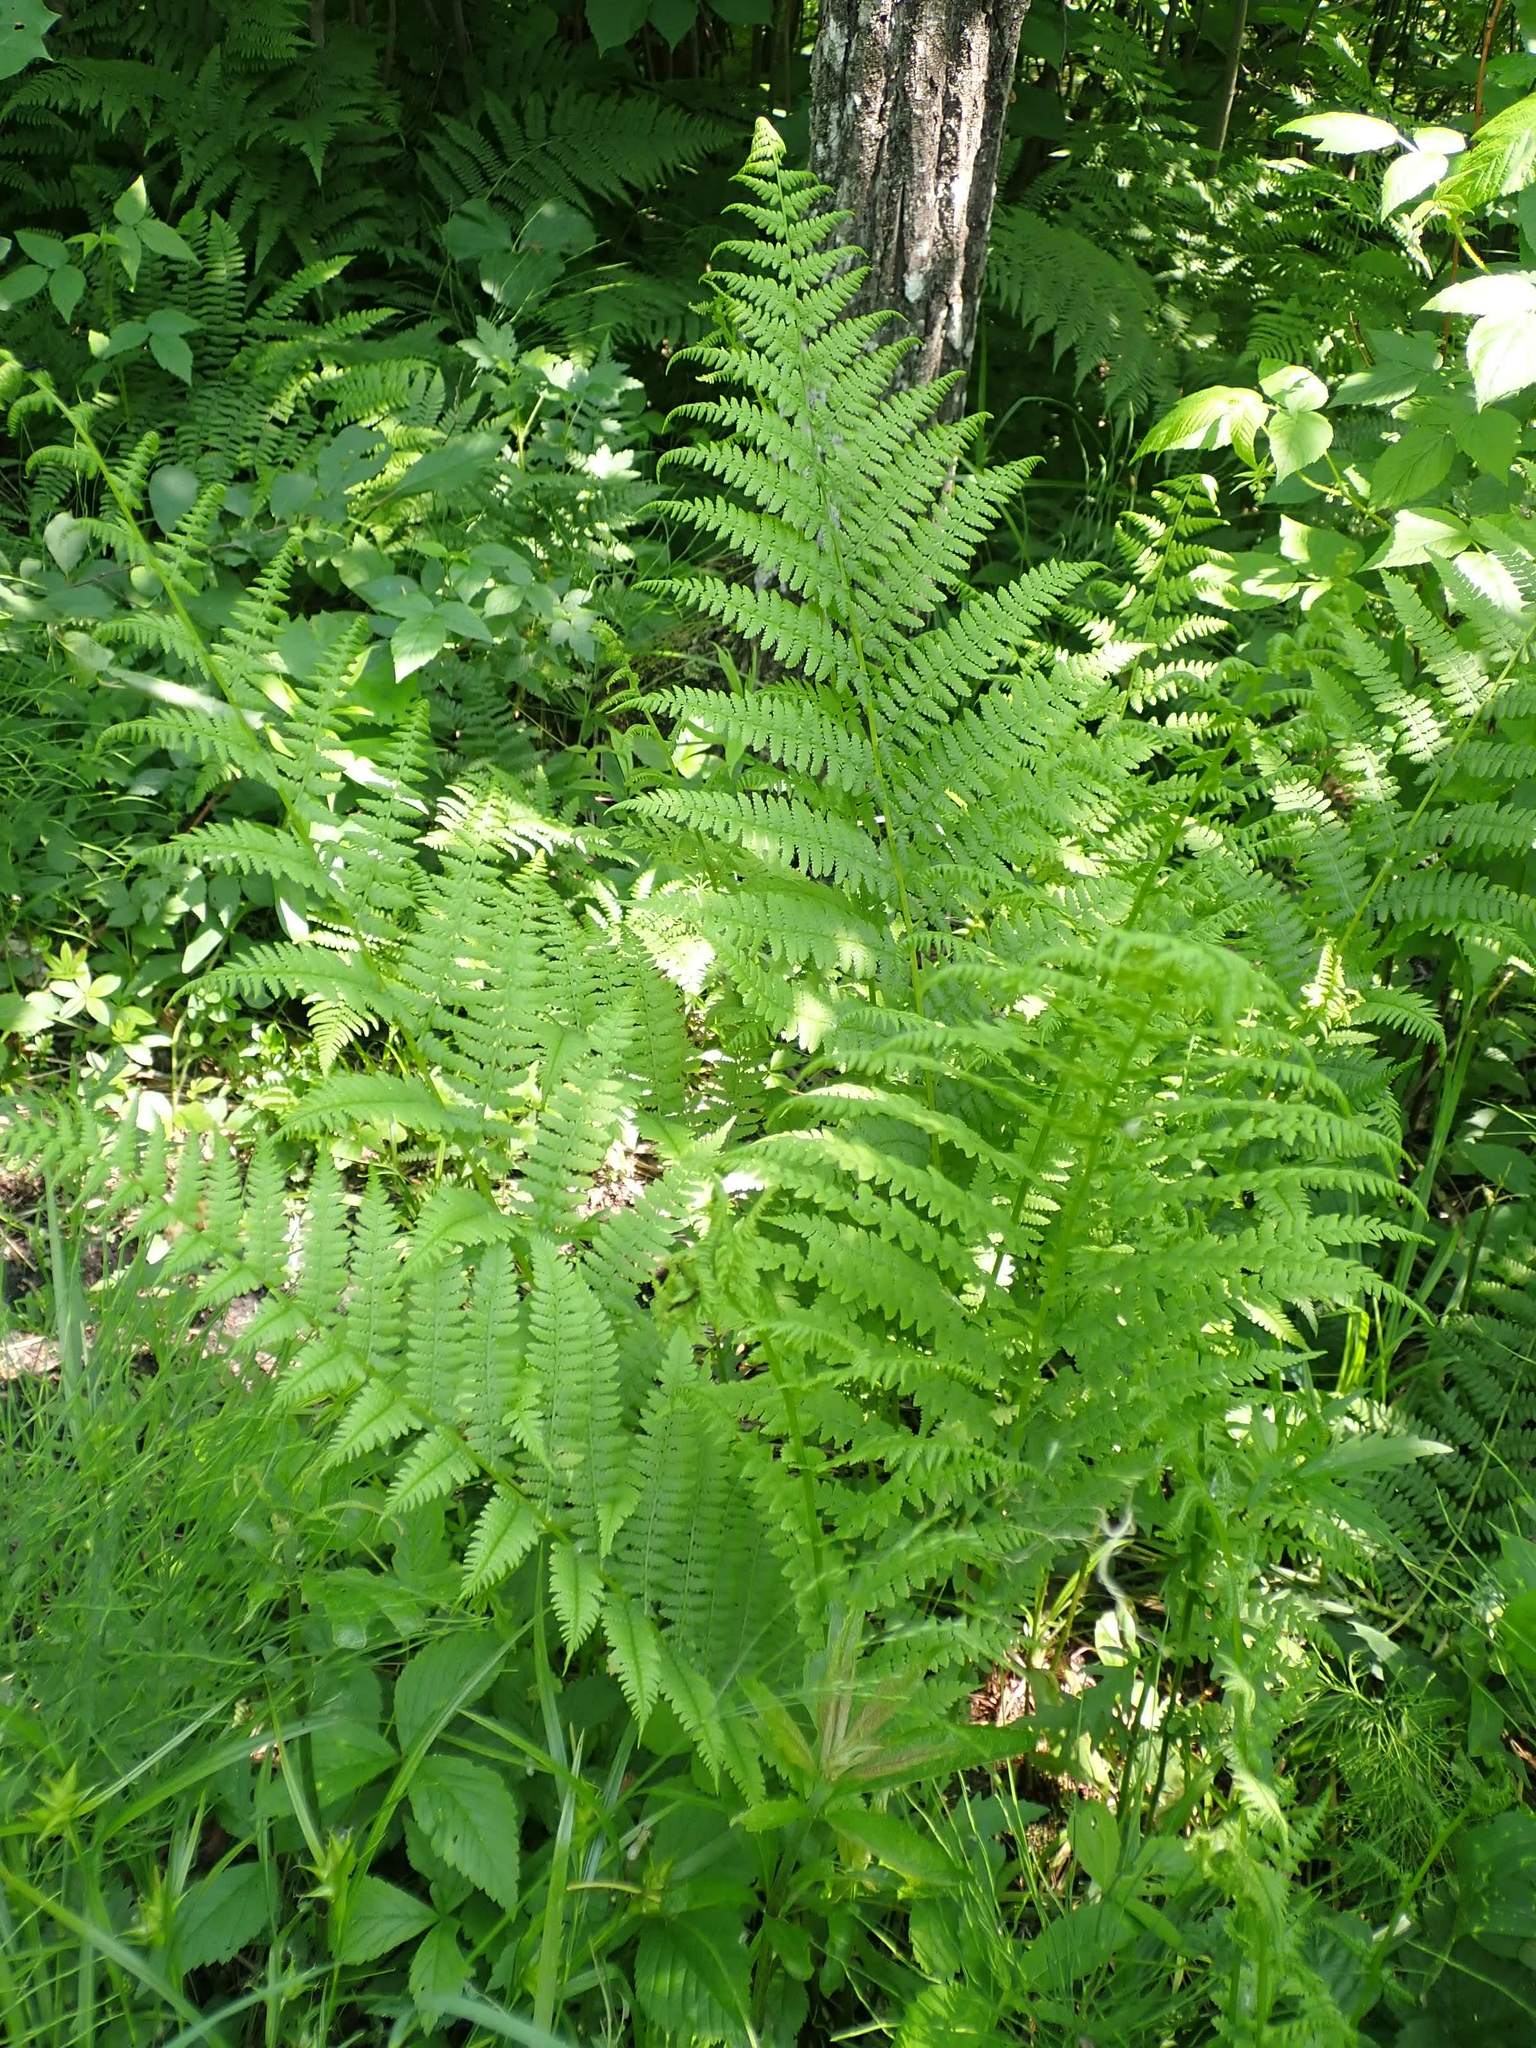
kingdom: Plantae
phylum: Tracheophyta
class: Polypodiopsida
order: Polypodiales
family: Athyriaceae
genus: Athyrium
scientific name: Athyrium angustum
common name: Northern lady fern
